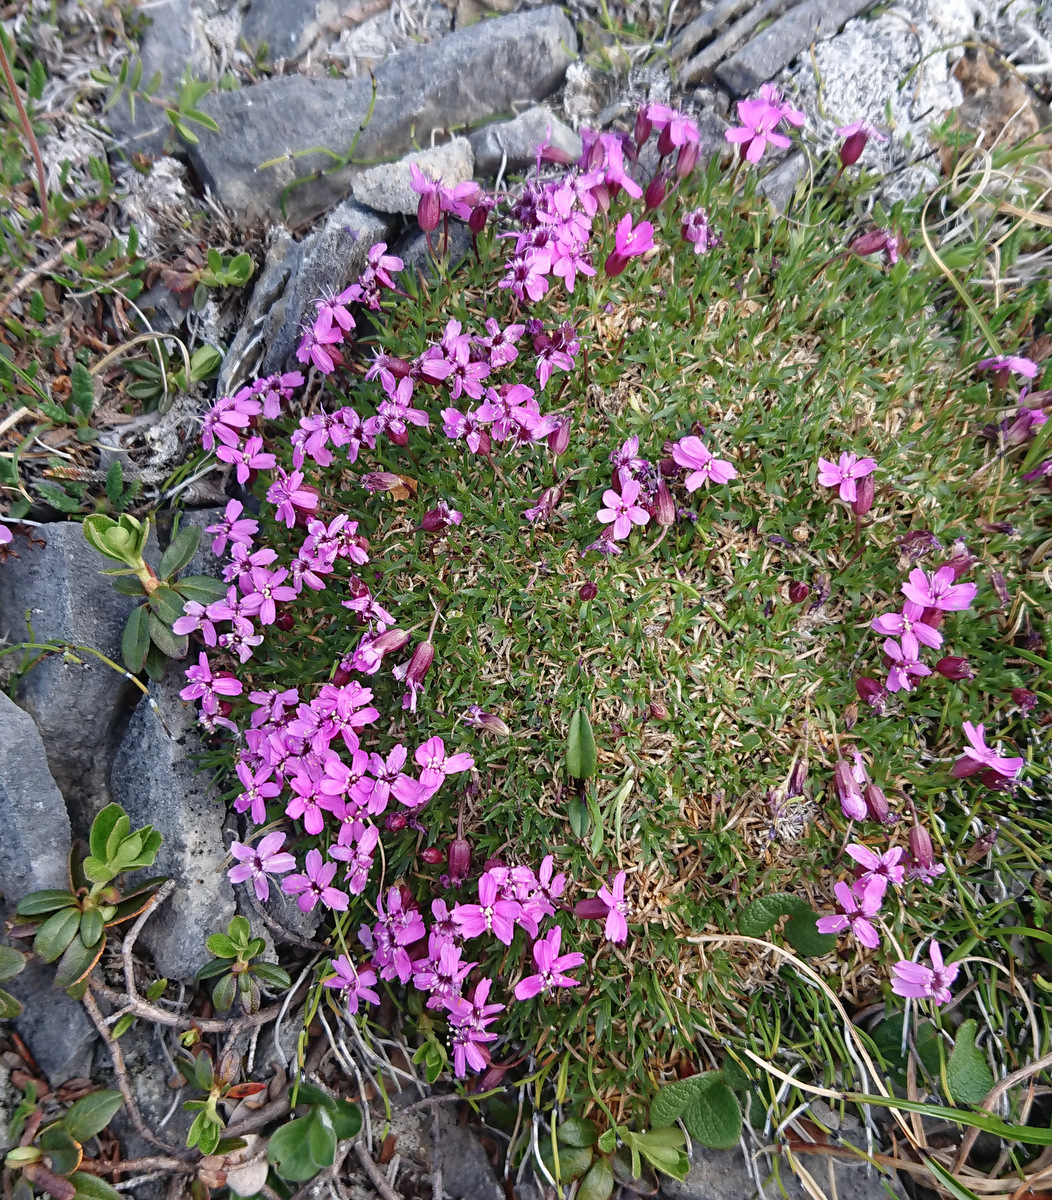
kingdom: Plantae
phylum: Tracheophyta
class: Magnoliopsida
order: Caryophyllales
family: Caryophyllaceae
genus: Silene
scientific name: Silene acaulis
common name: Moss campion
